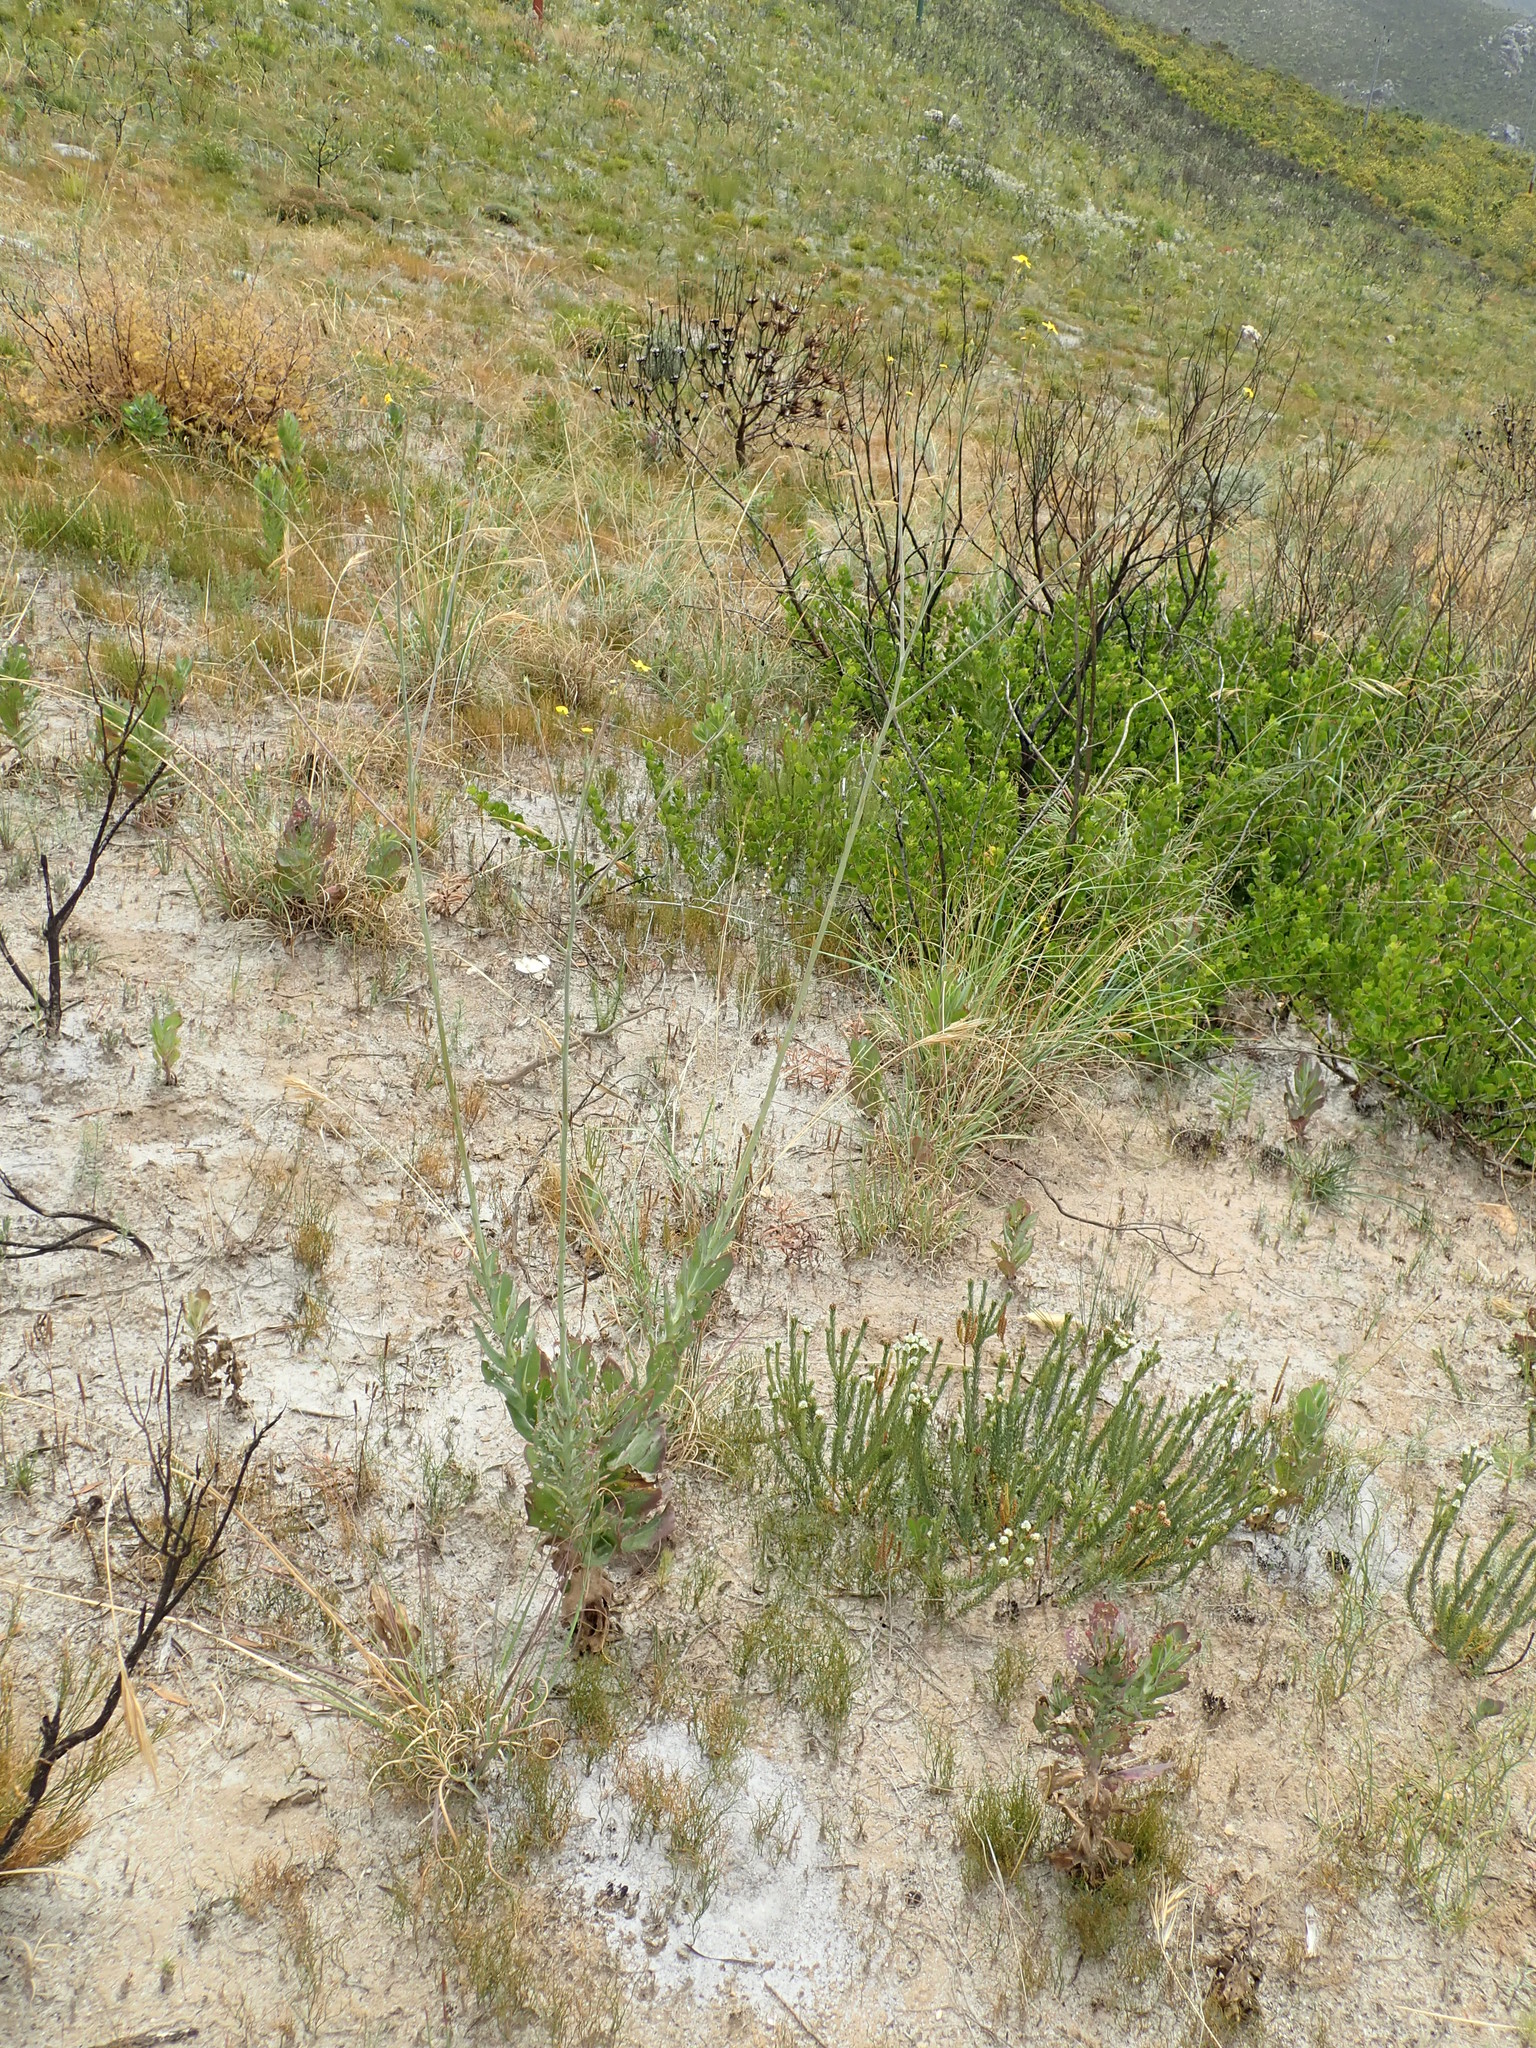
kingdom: Plantae
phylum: Tracheophyta
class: Magnoliopsida
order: Asterales
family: Asteraceae
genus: Othonna
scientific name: Othonna quinquedentata
